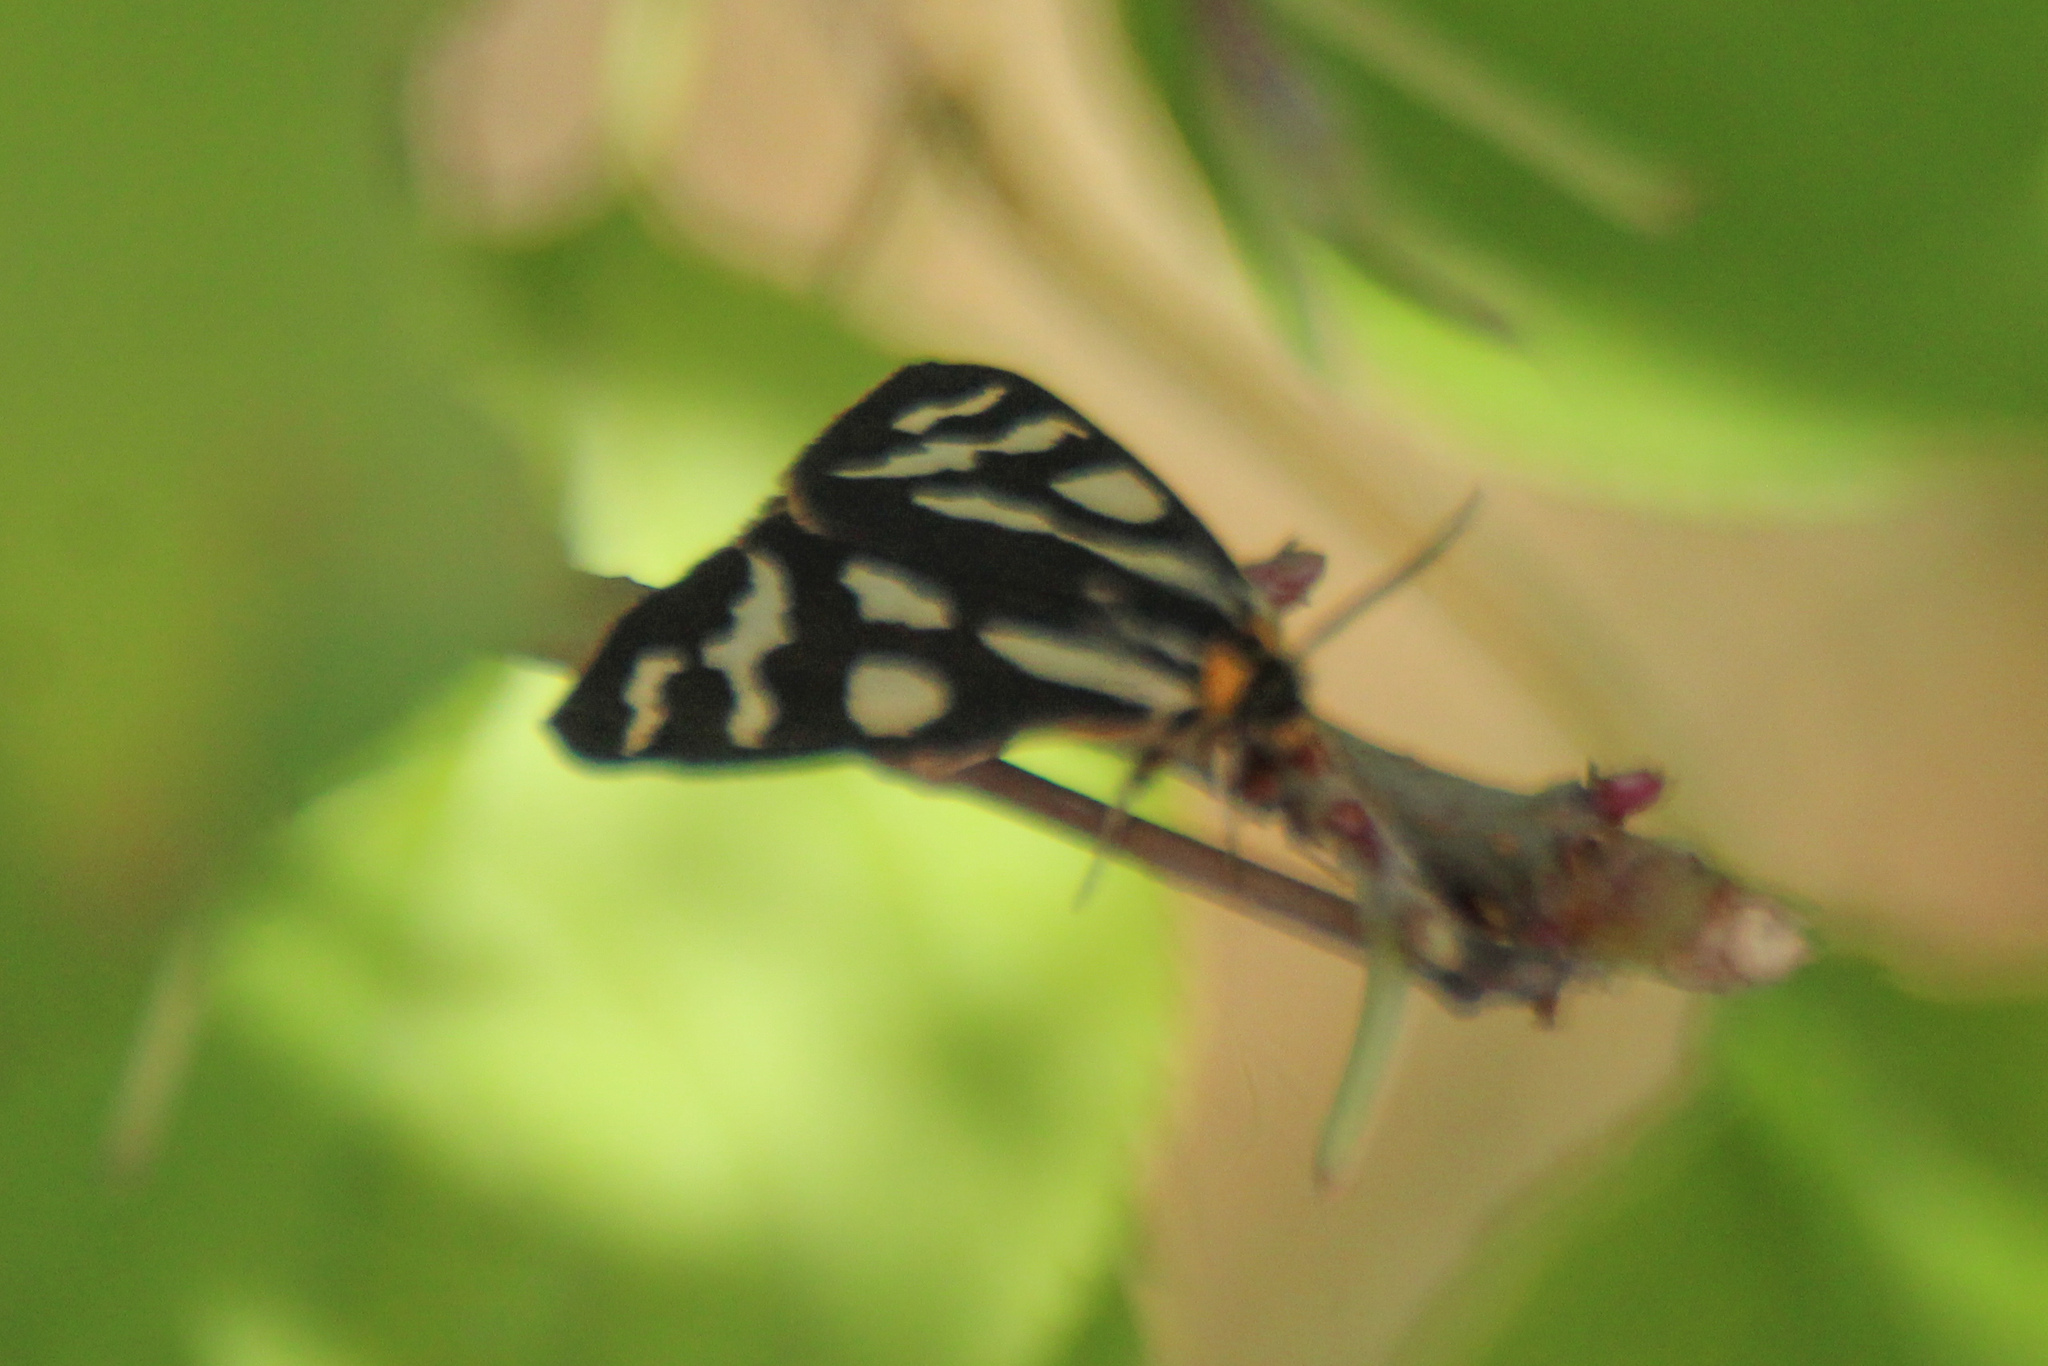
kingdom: Animalia
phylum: Arthropoda
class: Insecta
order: Lepidoptera
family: Erebidae
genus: Parasemia
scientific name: Parasemia plantaginis
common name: Wood tiger
